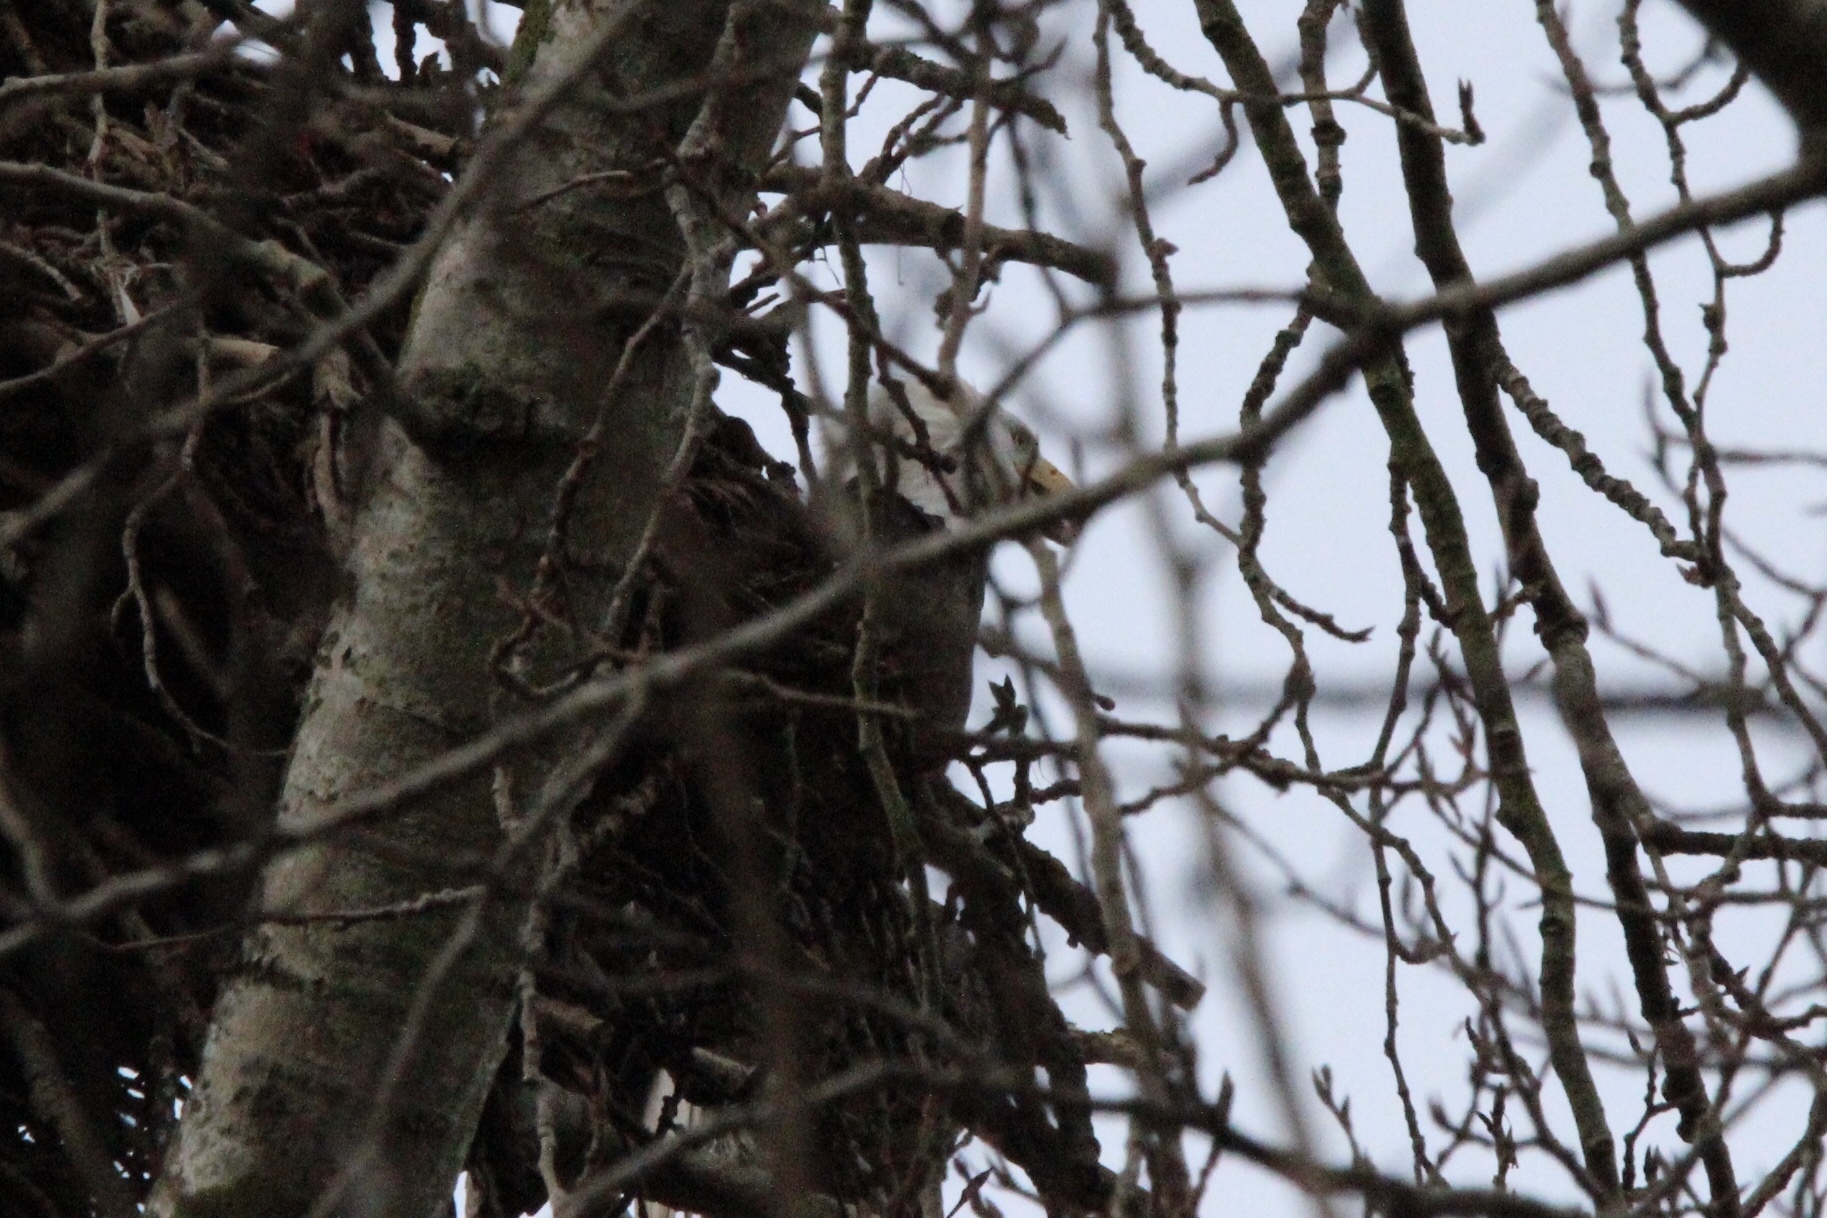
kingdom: Animalia
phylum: Chordata
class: Aves
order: Accipitriformes
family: Accipitridae
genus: Haliaeetus
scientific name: Haliaeetus leucocephalus
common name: Bald eagle
